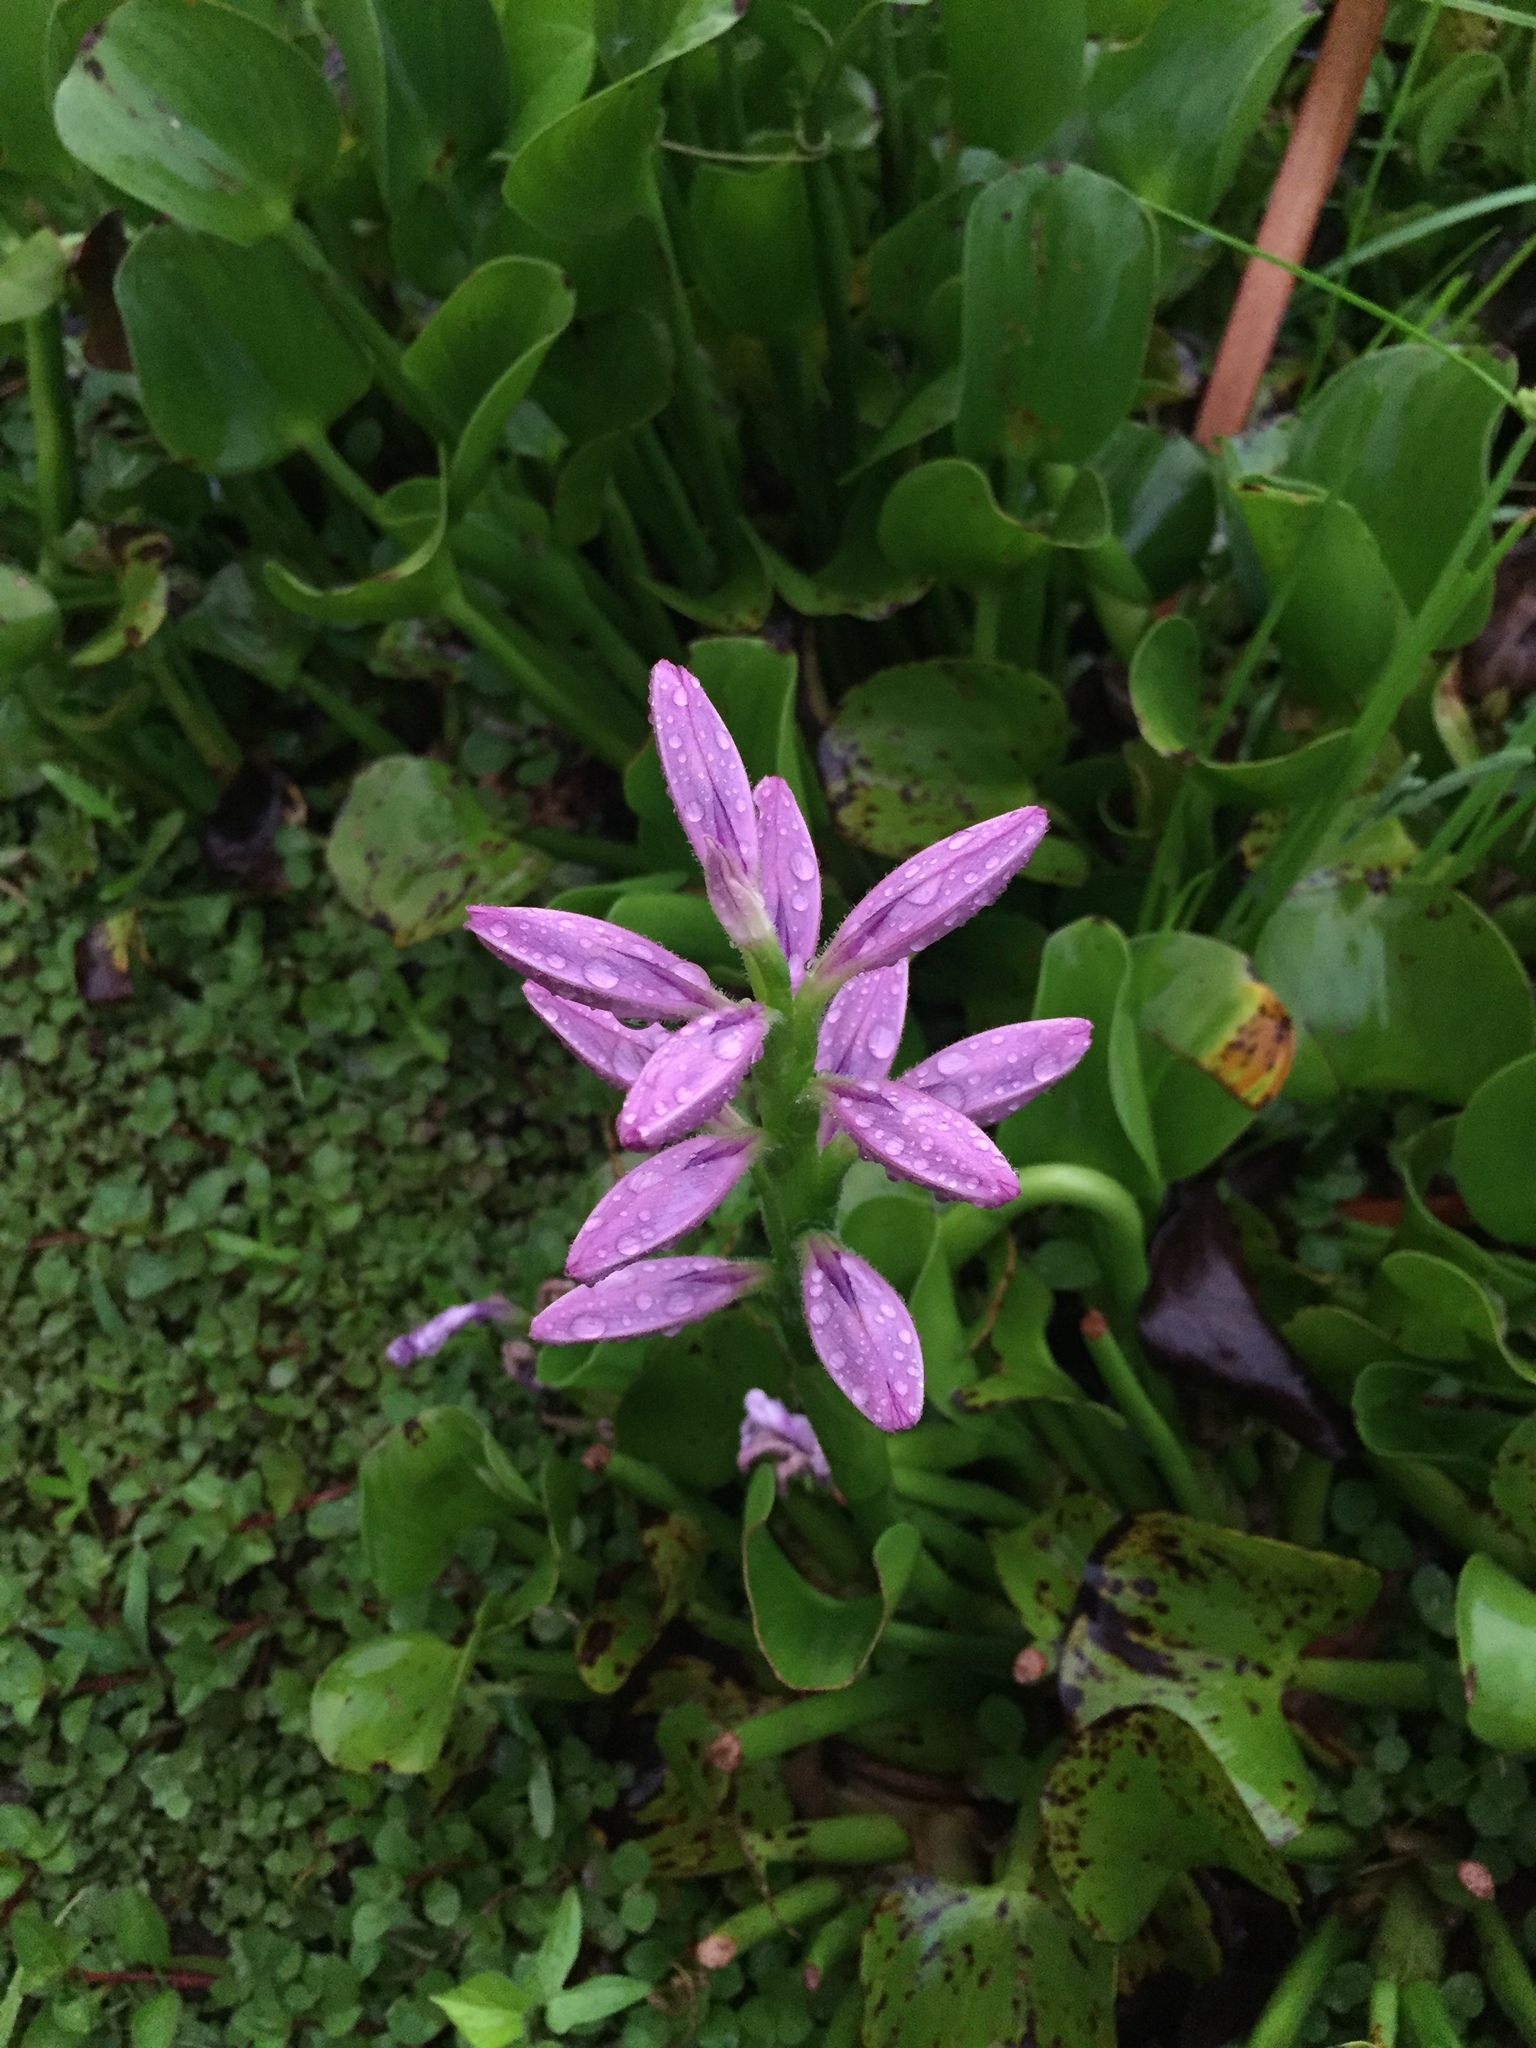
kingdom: Plantae
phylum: Tracheophyta
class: Liliopsida
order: Commelinales
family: Pontederiaceae
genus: Pontederia
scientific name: Pontederia crassipes
